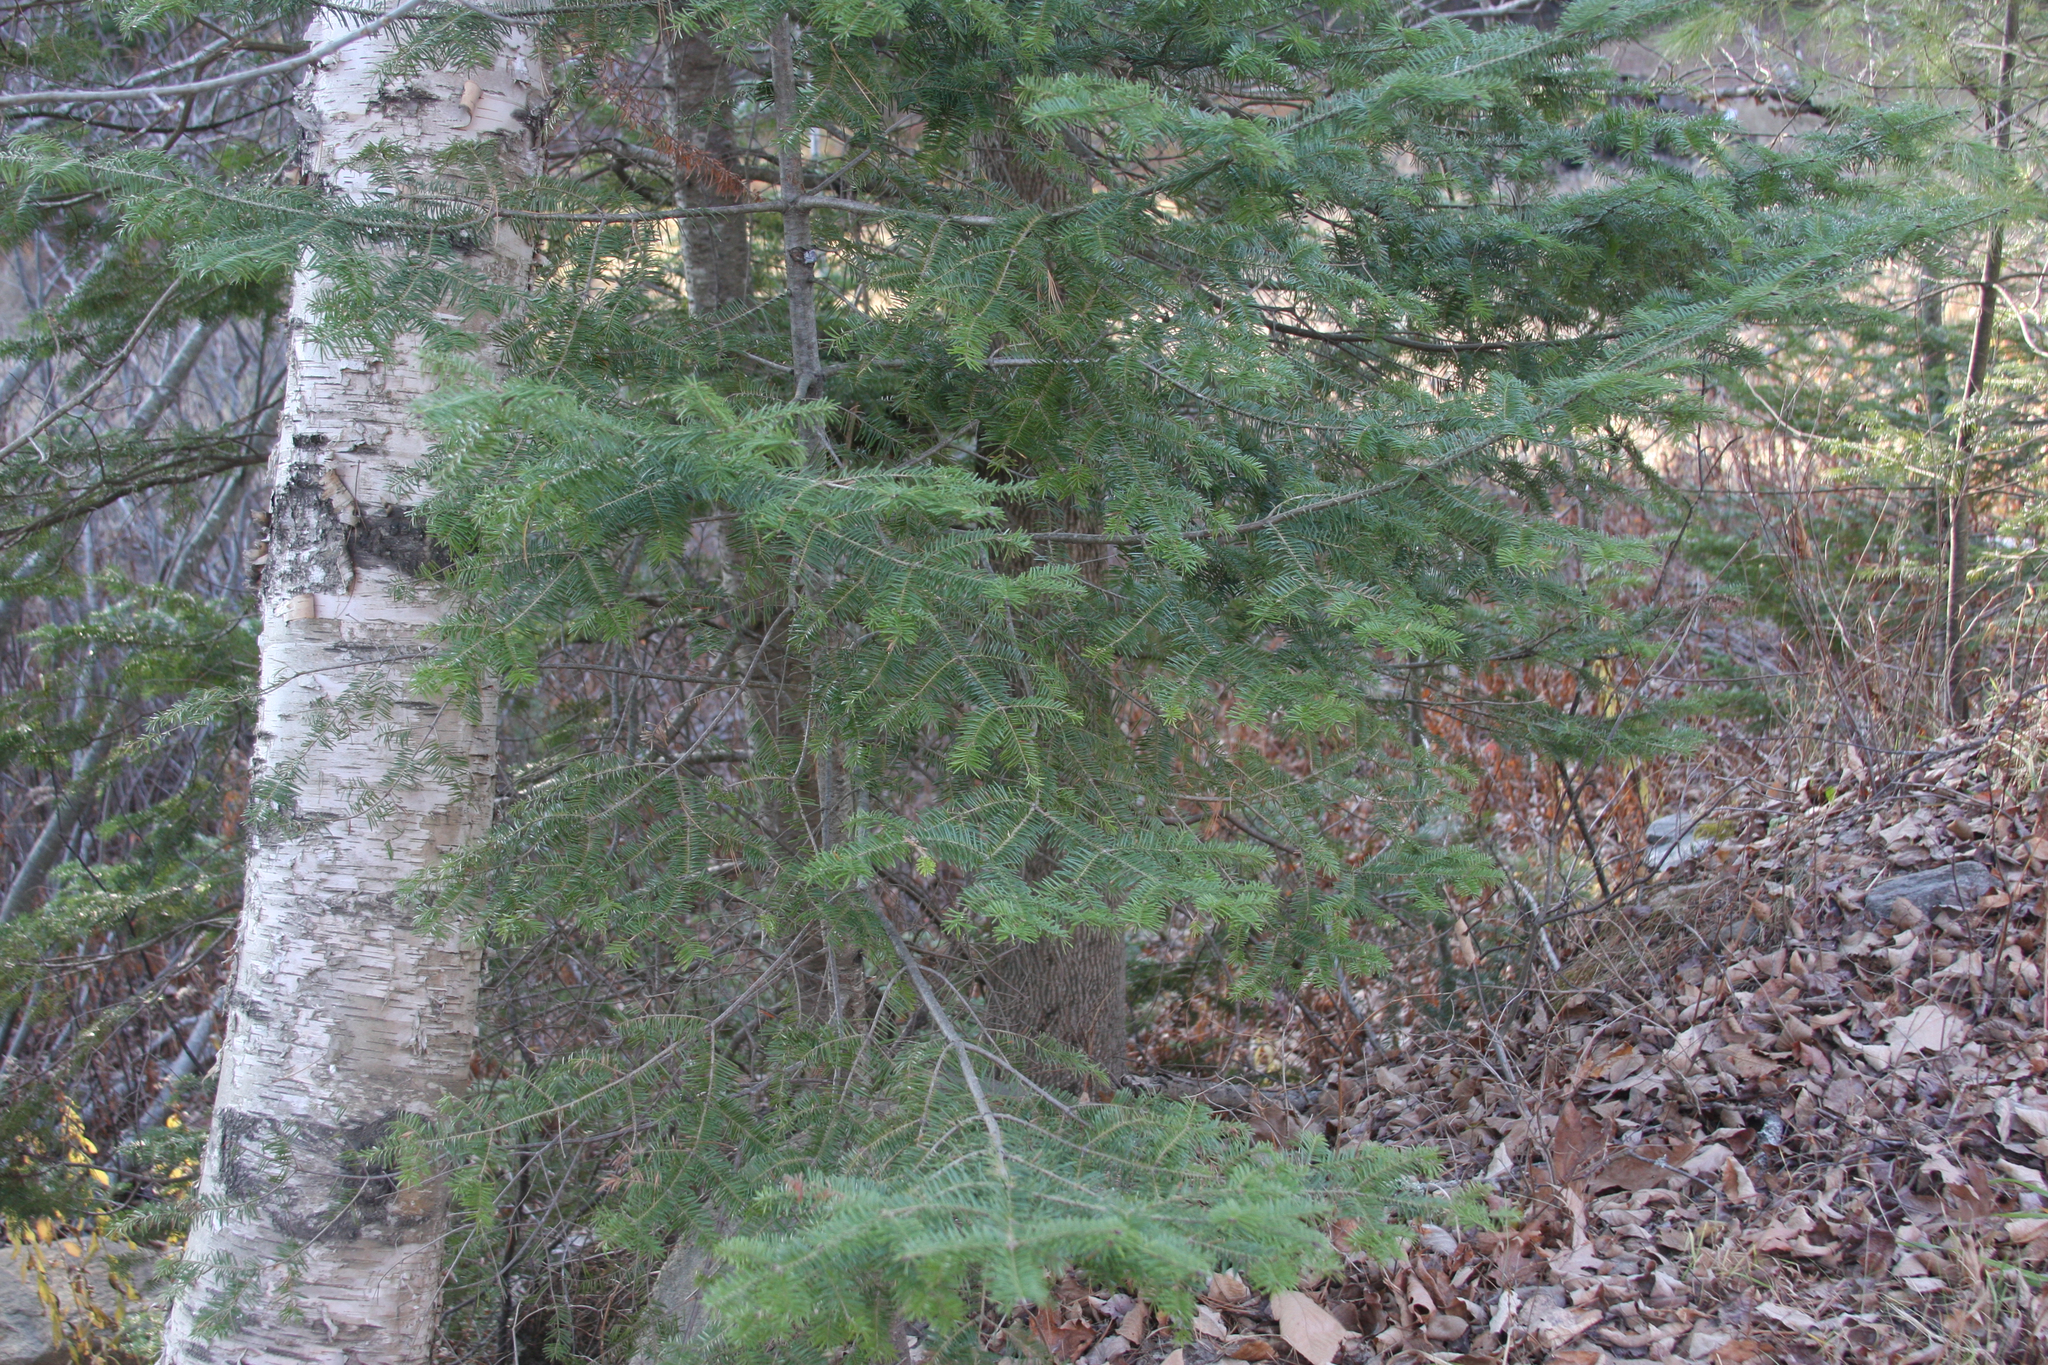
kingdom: Plantae
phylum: Tracheophyta
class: Pinopsida
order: Pinales
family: Pinaceae
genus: Abies
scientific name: Abies balsamea
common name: Balsam fir
